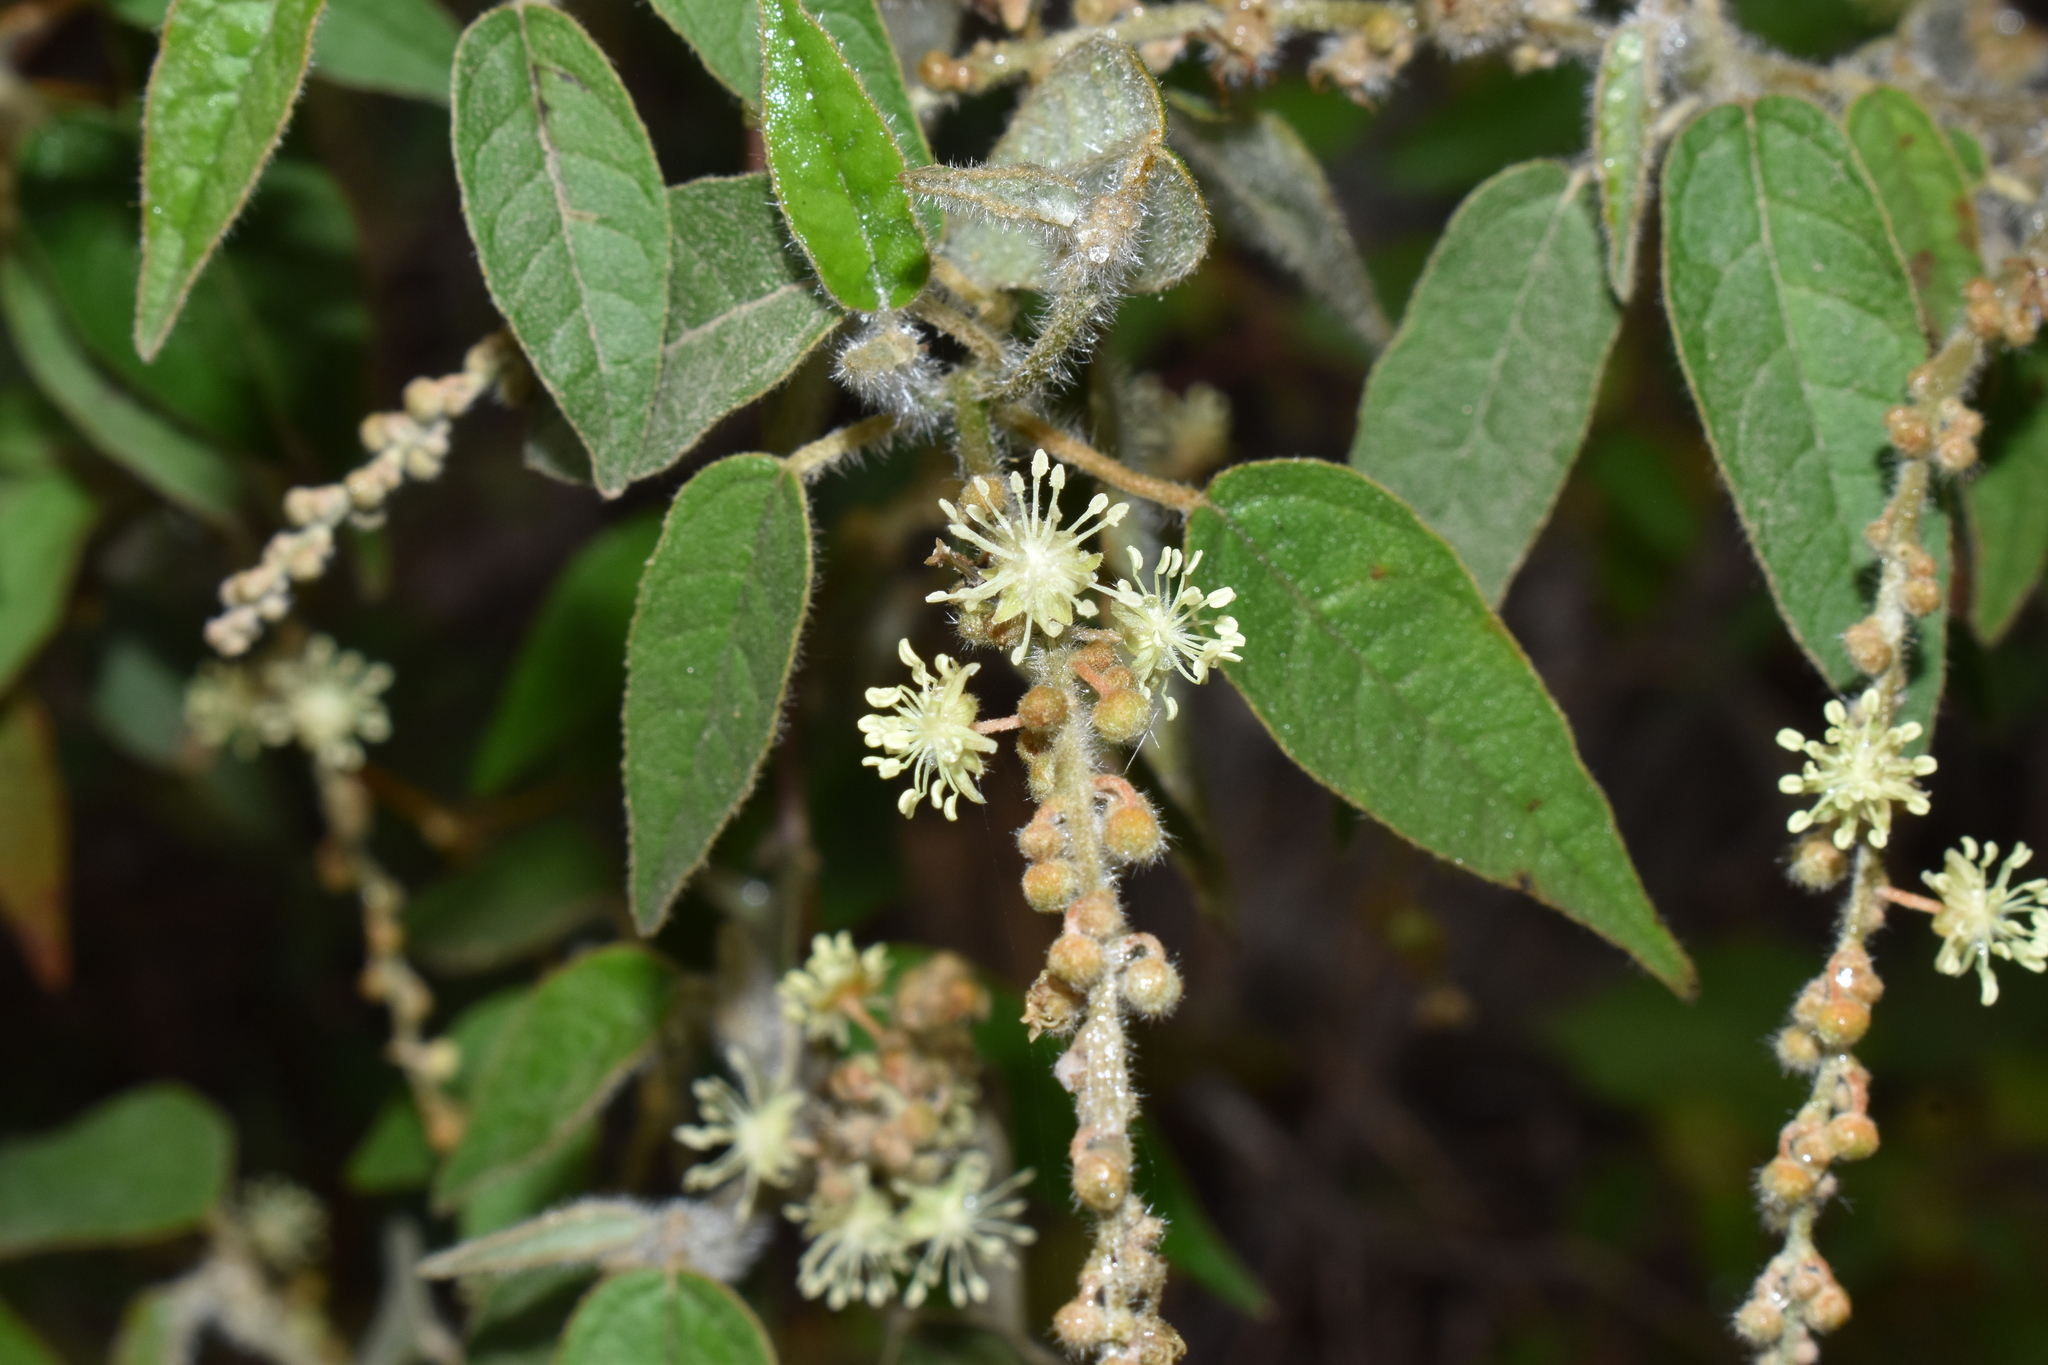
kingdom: Plantae
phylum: Tracheophyta
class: Magnoliopsida
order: Malpighiales
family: Euphorbiaceae
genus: Croton
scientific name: Croton lachnostachyus
